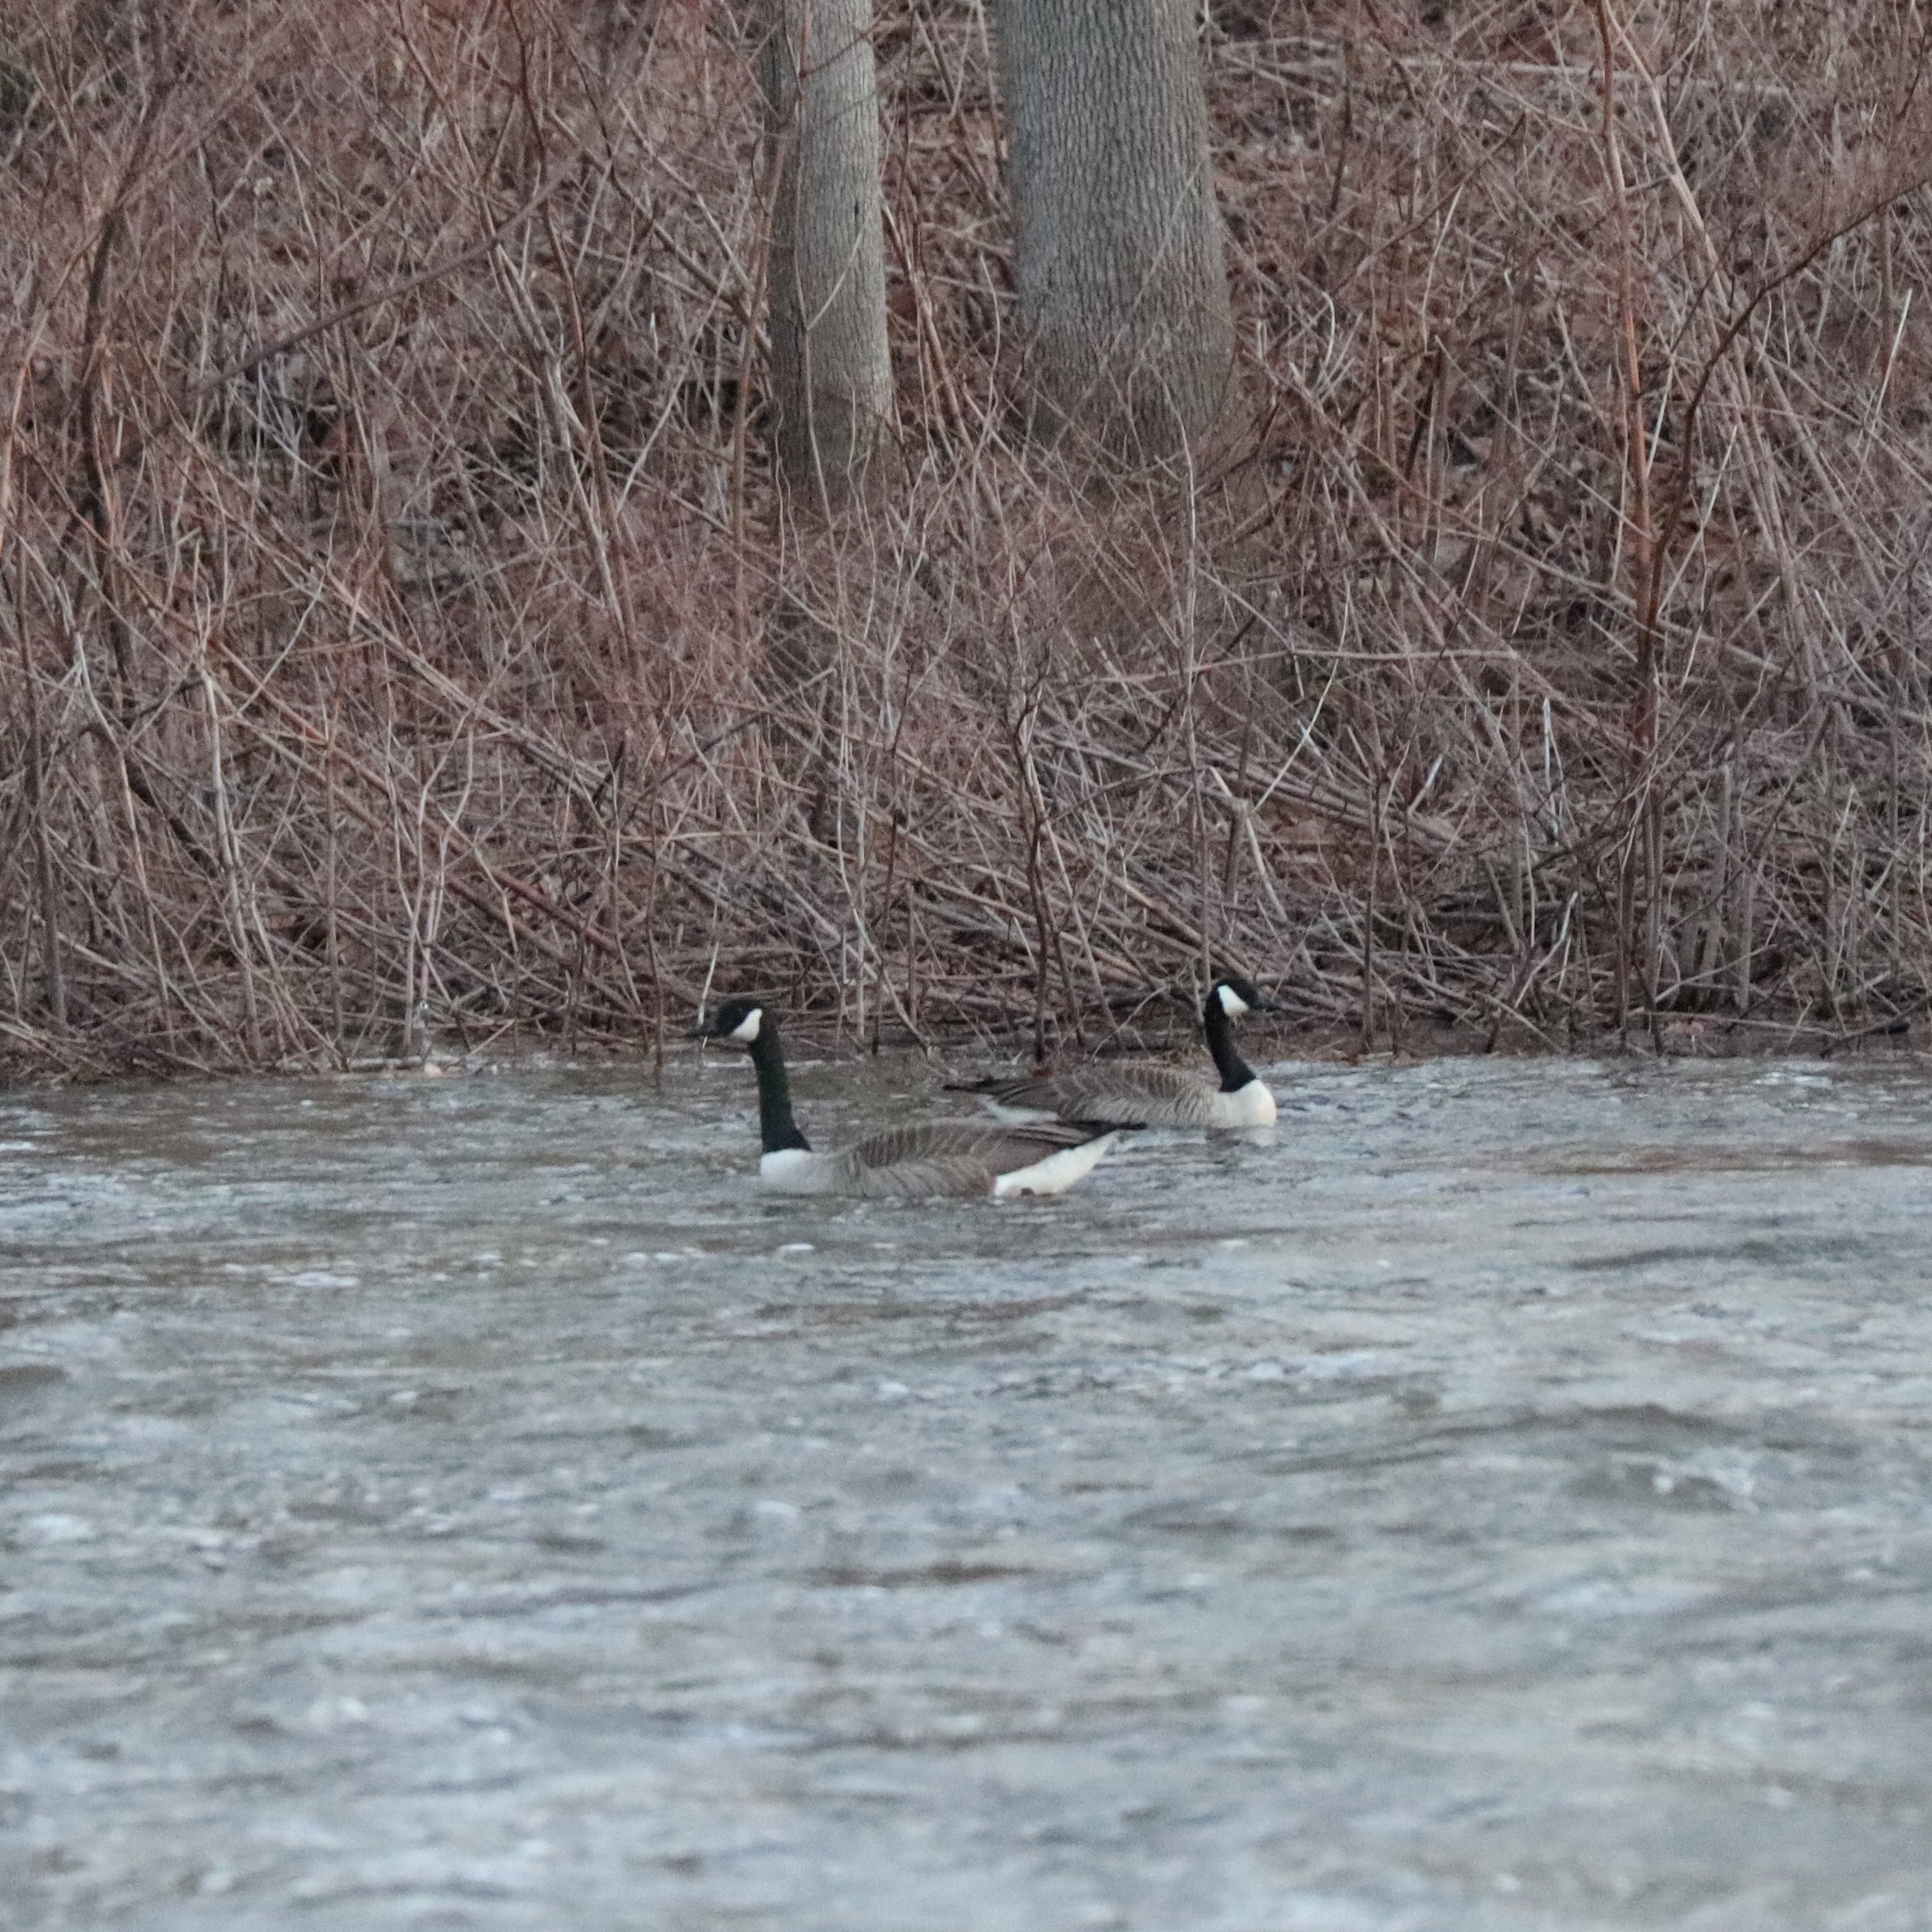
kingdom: Animalia
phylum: Chordata
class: Aves
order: Anseriformes
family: Anatidae
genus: Branta
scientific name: Branta canadensis
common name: Canada goose
